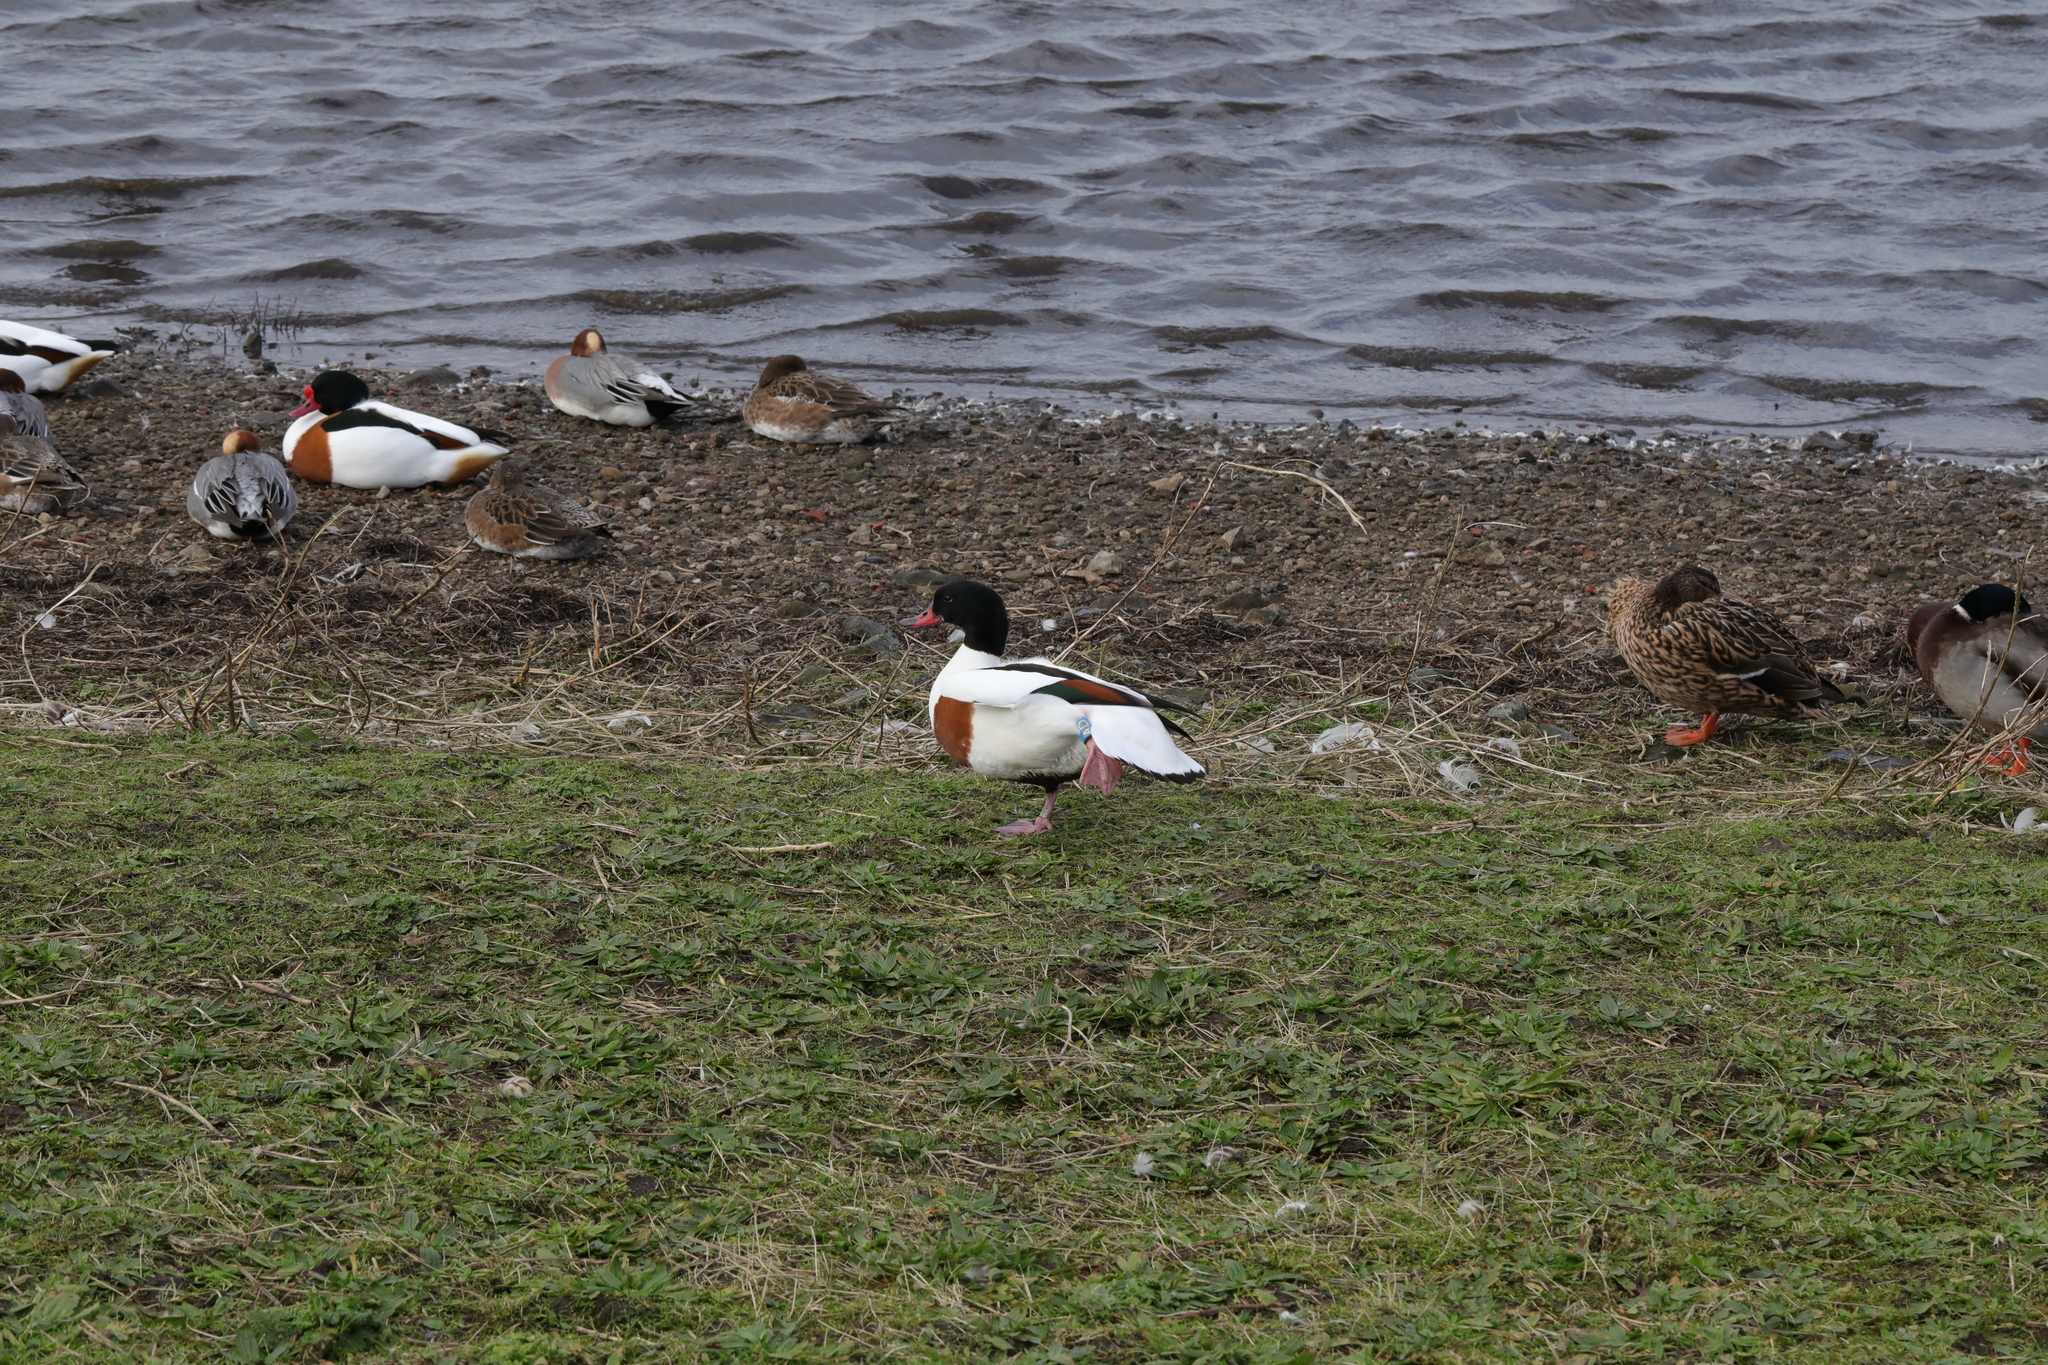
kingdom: Animalia
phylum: Chordata
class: Aves
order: Anseriformes
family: Anatidae
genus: Tadorna
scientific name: Tadorna tadorna
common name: Common shelduck
